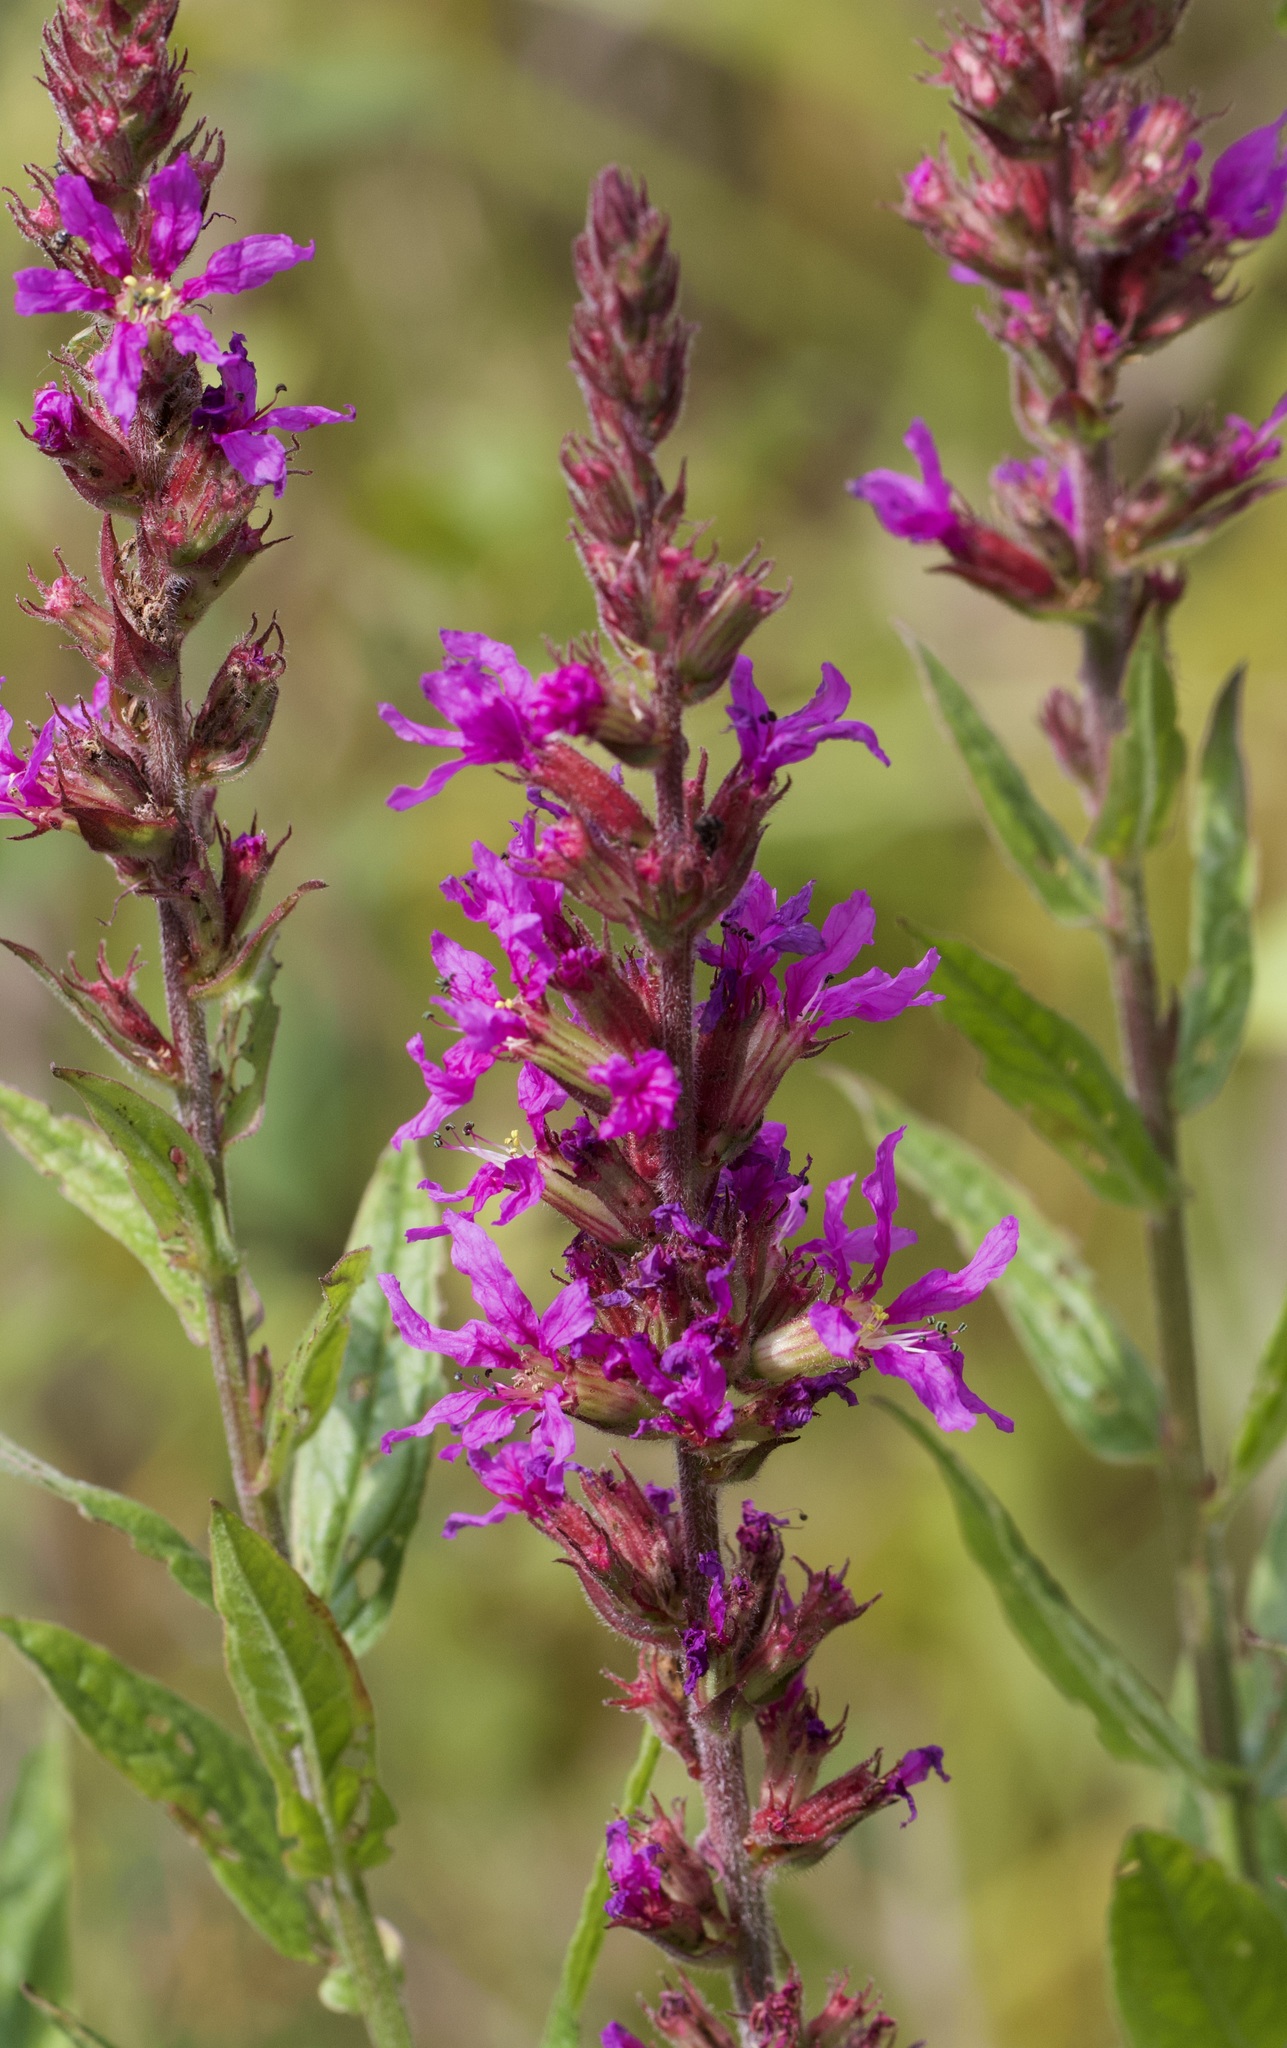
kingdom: Plantae
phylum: Tracheophyta
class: Magnoliopsida
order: Myrtales
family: Lythraceae
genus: Lythrum
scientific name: Lythrum salicaria
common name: Purple loosestrife
